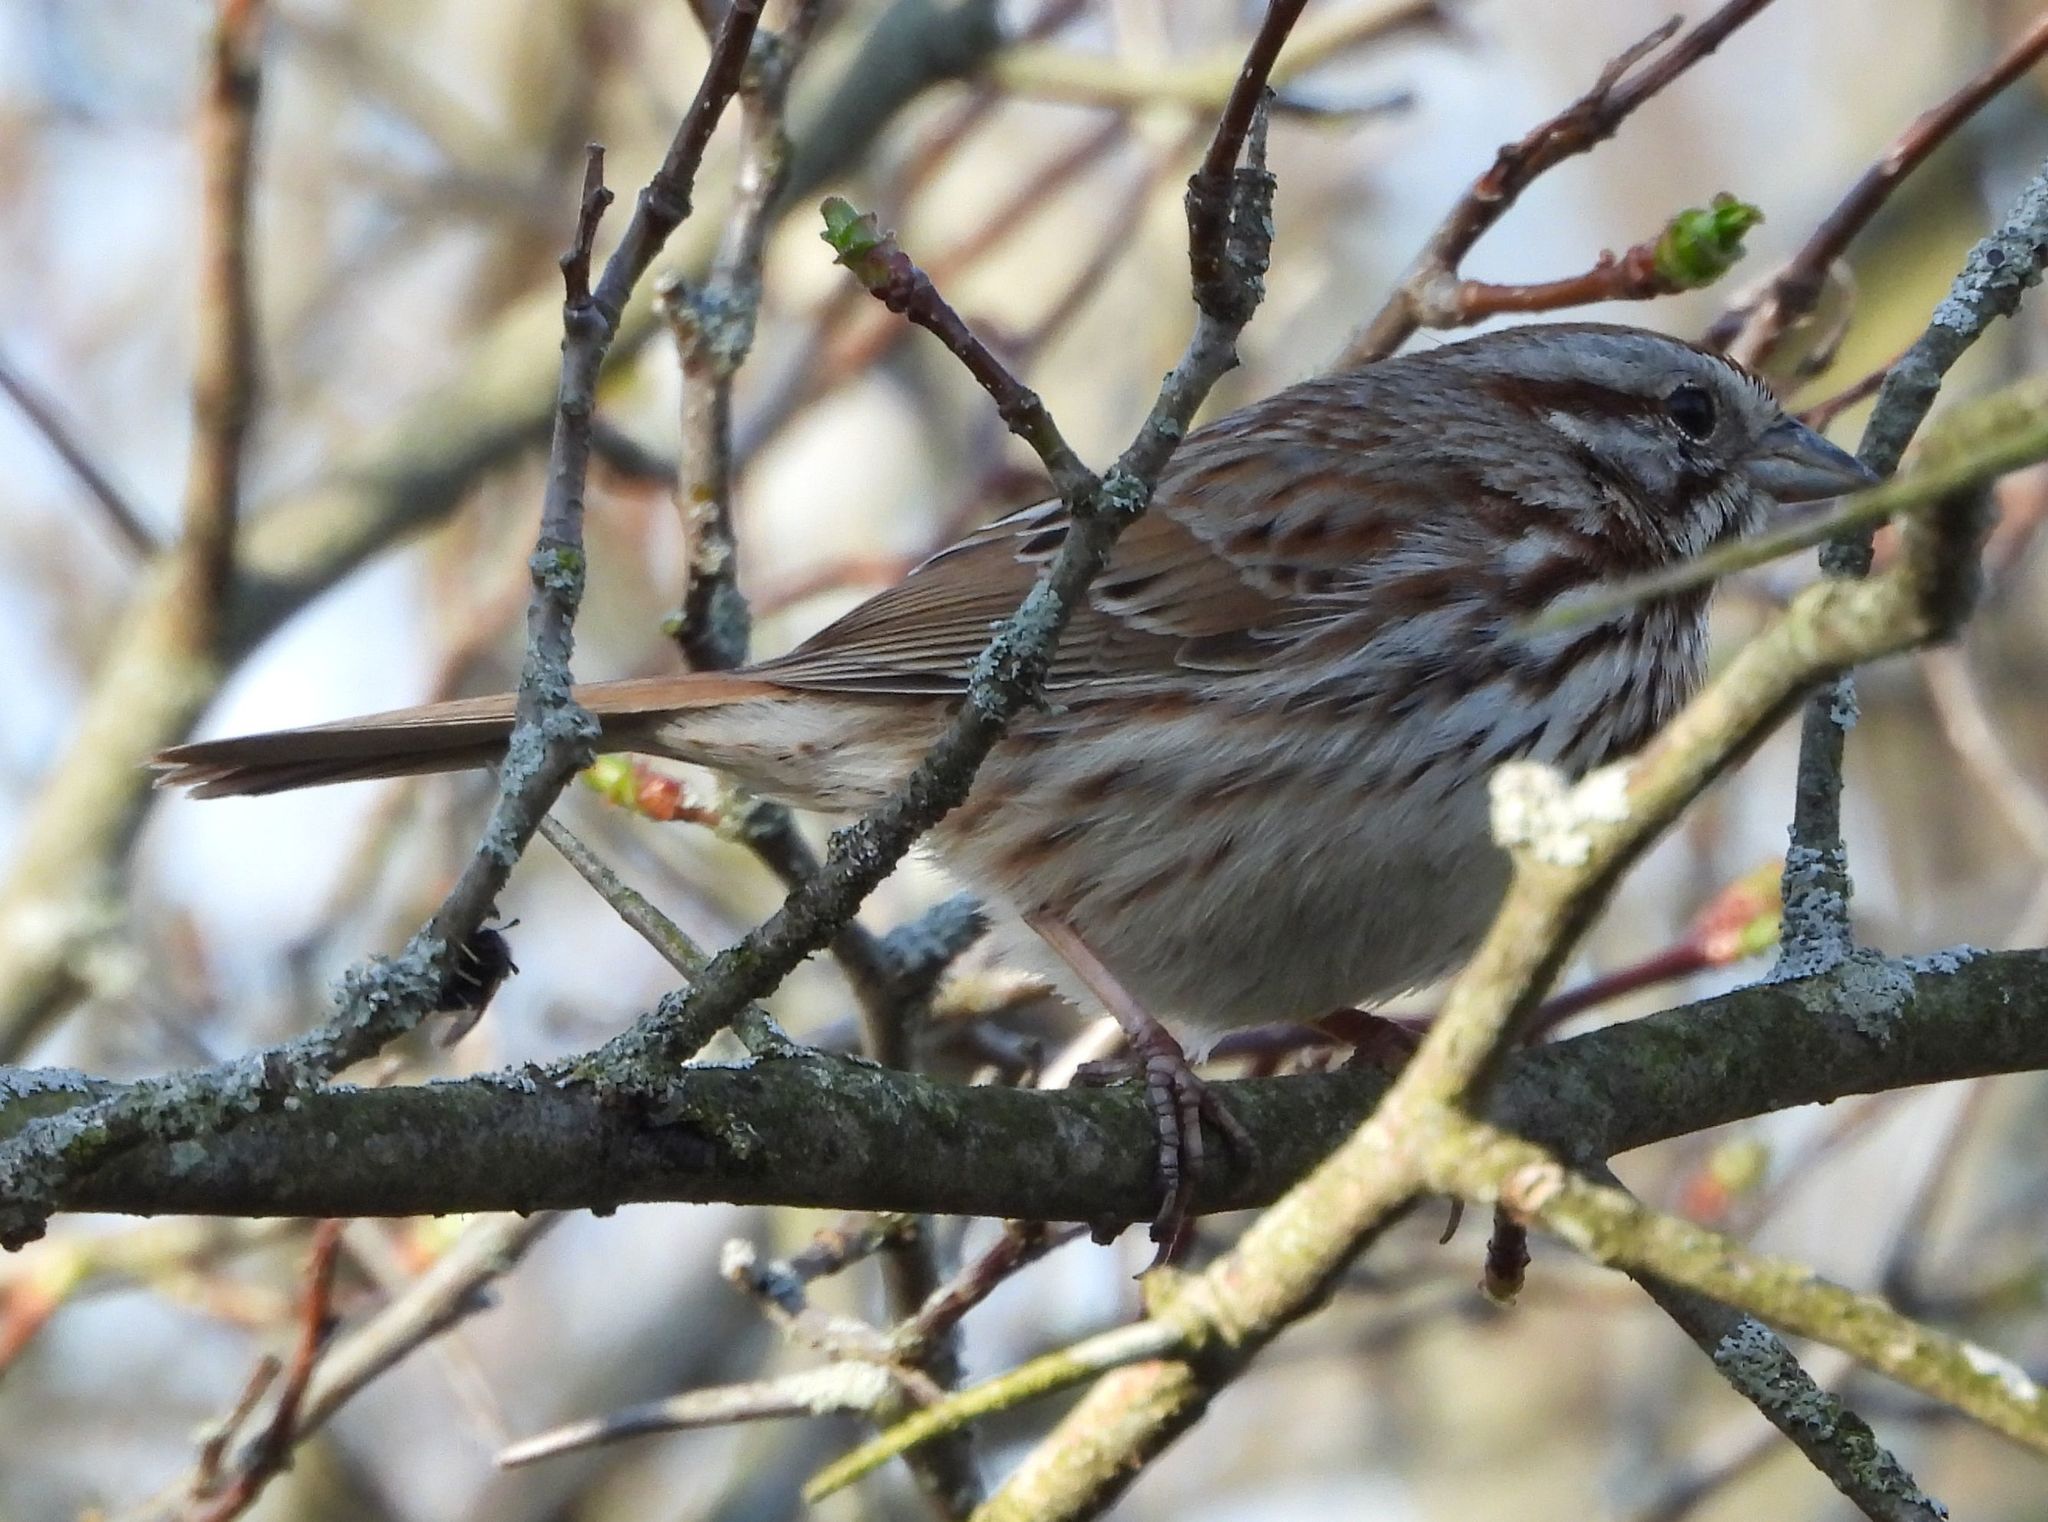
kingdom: Animalia
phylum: Chordata
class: Aves
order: Passeriformes
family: Passerellidae
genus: Melospiza
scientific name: Melospiza melodia
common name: Song sparrow
